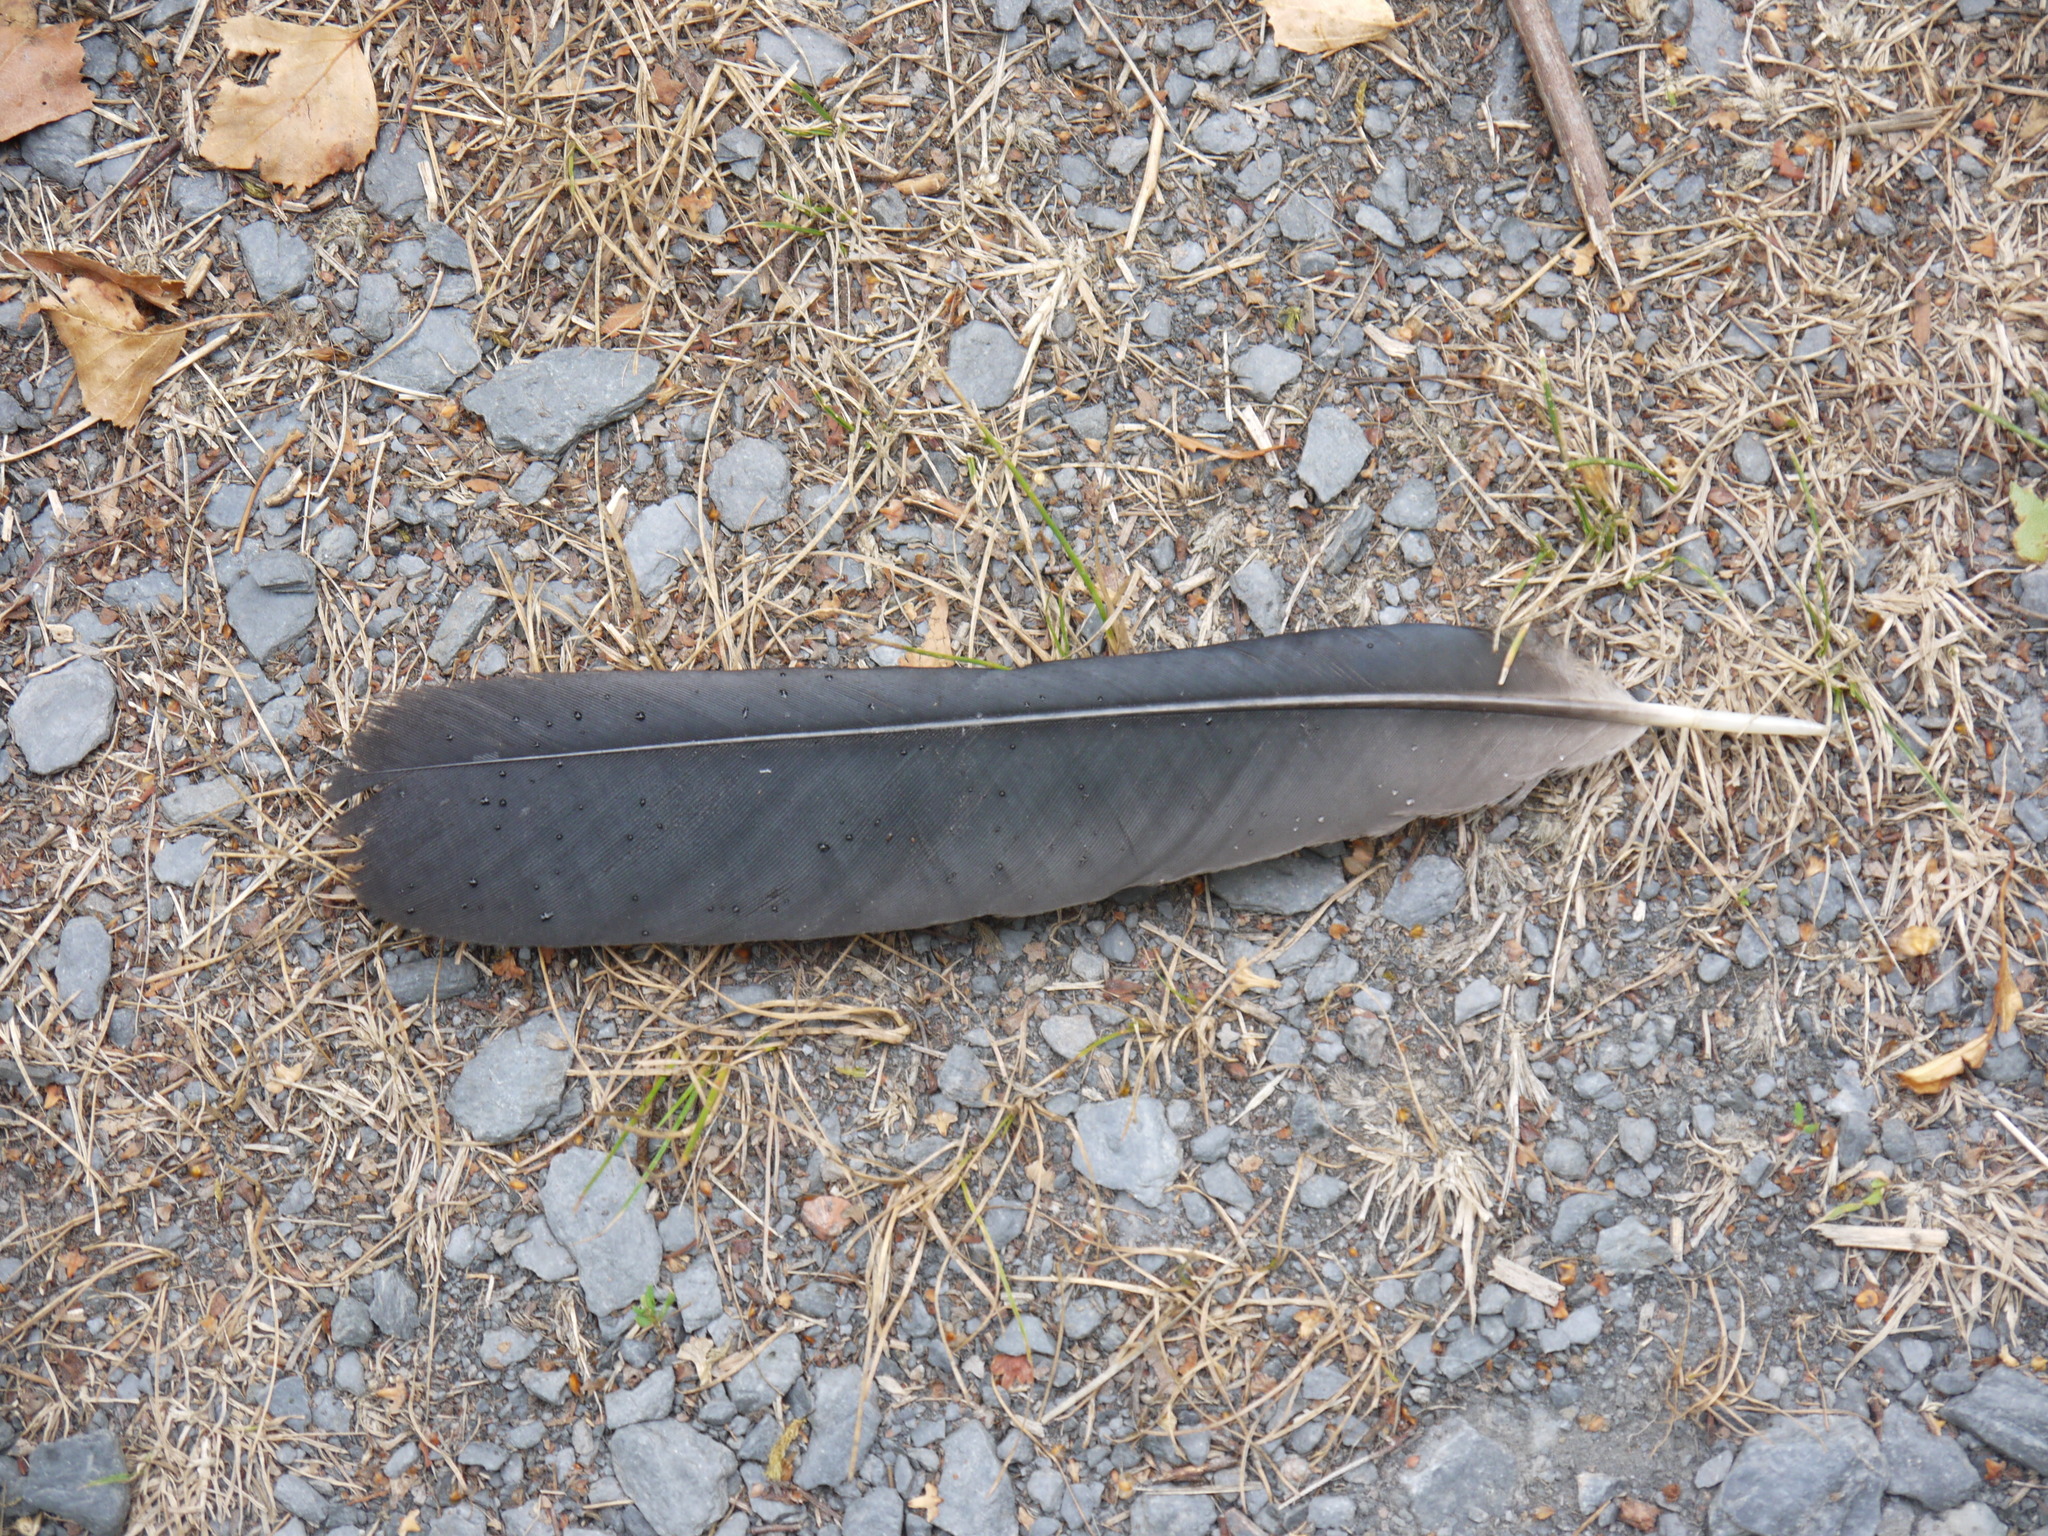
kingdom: Animalia
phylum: Chordata
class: Aves
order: Passeriformes
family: Corvidae
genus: Corvus
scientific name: Corvus brachyrhynchos
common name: American crow
